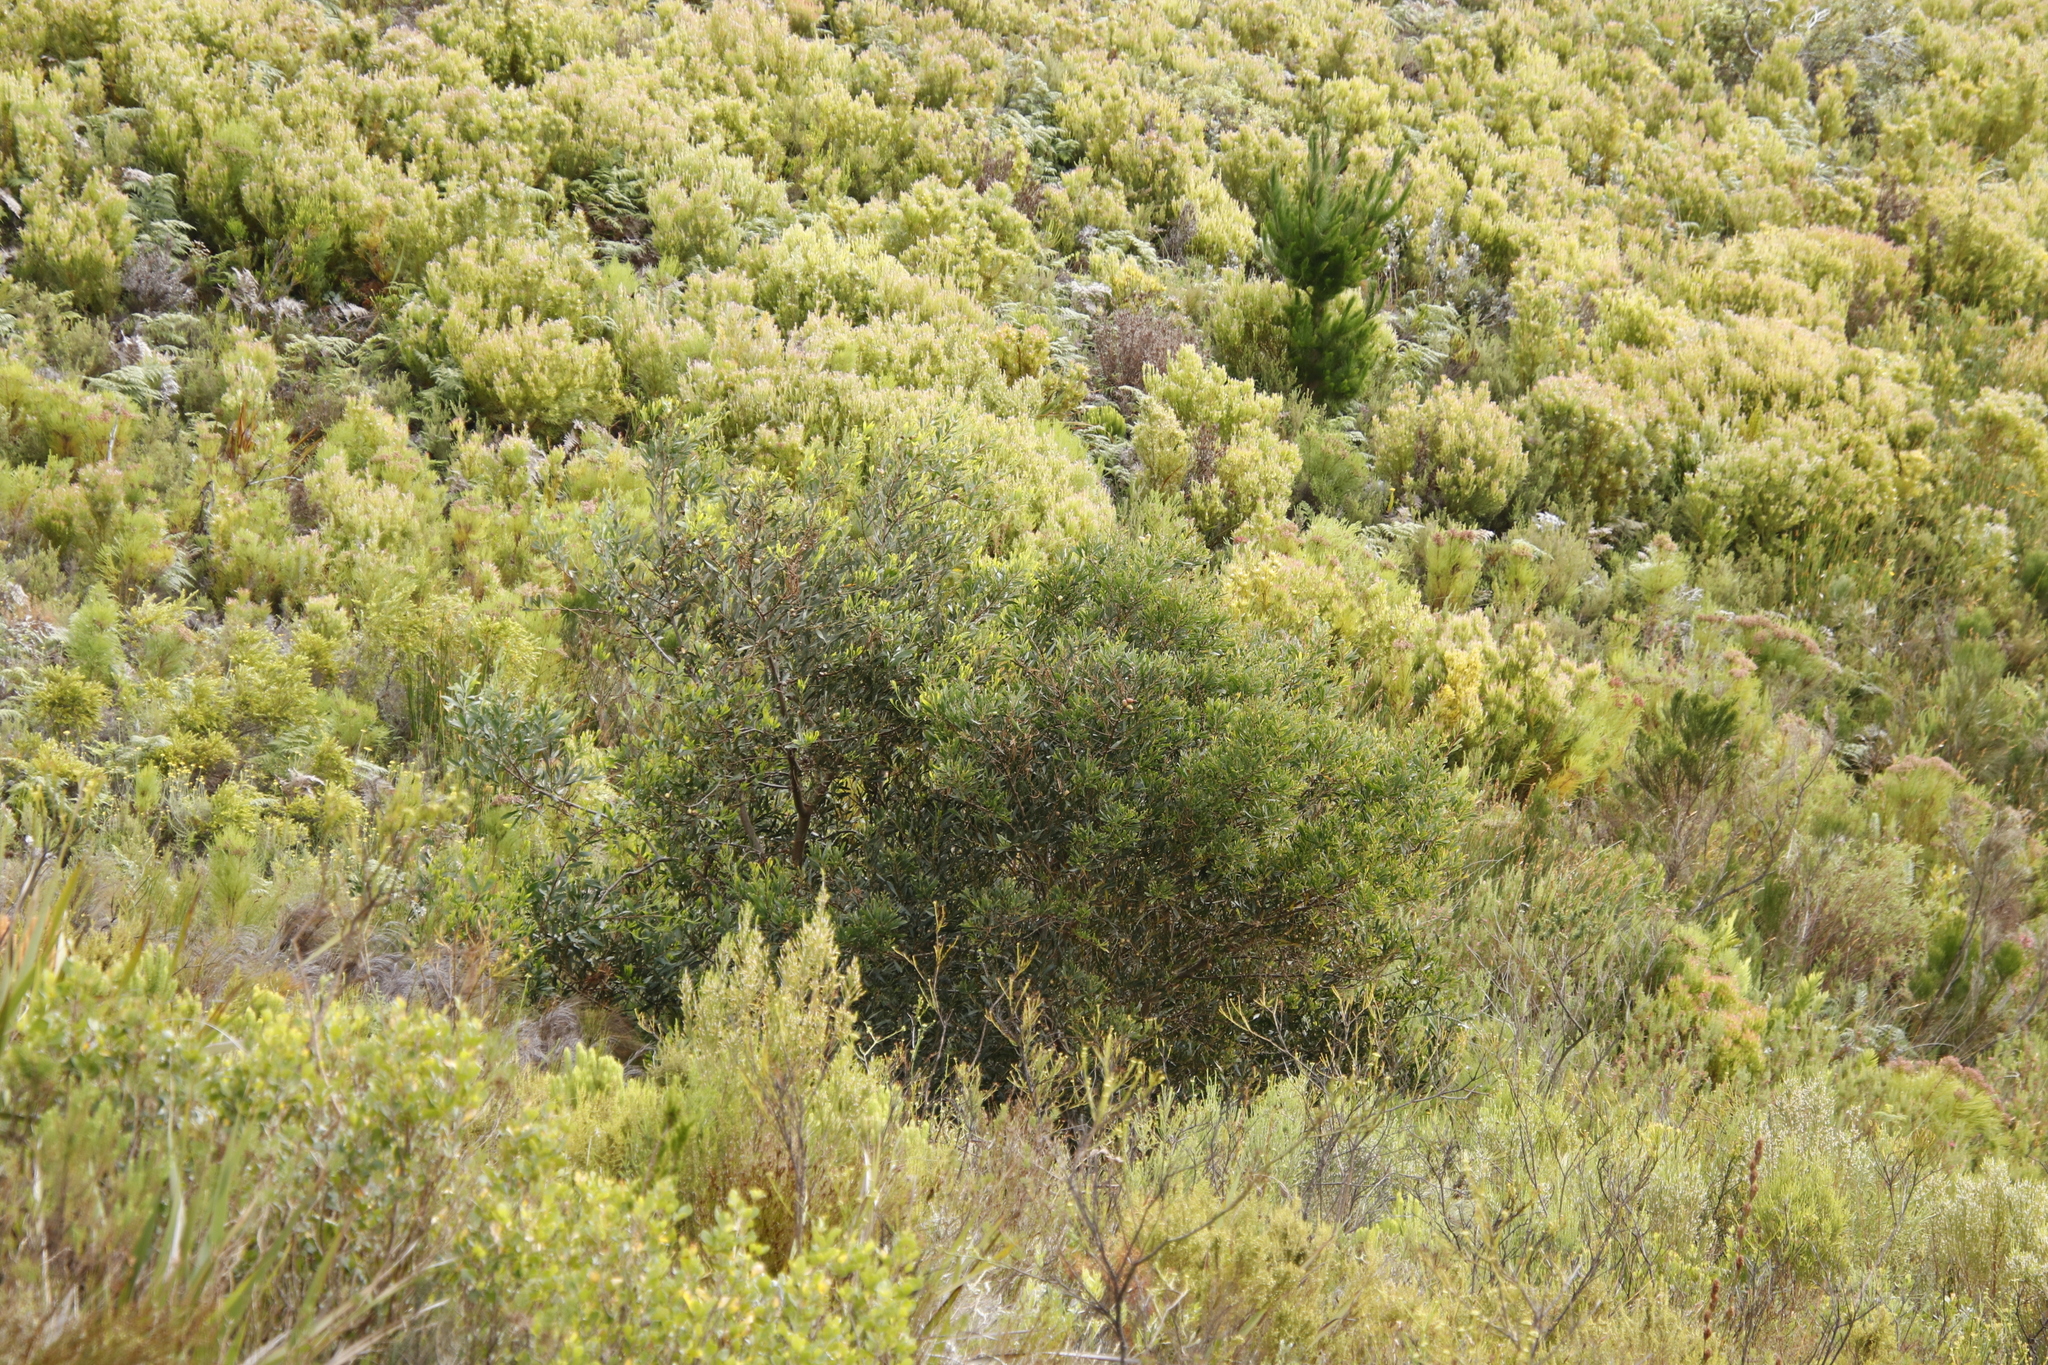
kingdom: Plantae
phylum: Tracheophyta
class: Magnoliopsida
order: Fabales
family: Fabaceae
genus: Acacia
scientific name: Acacia longifolia
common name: Sydney golden wattle
